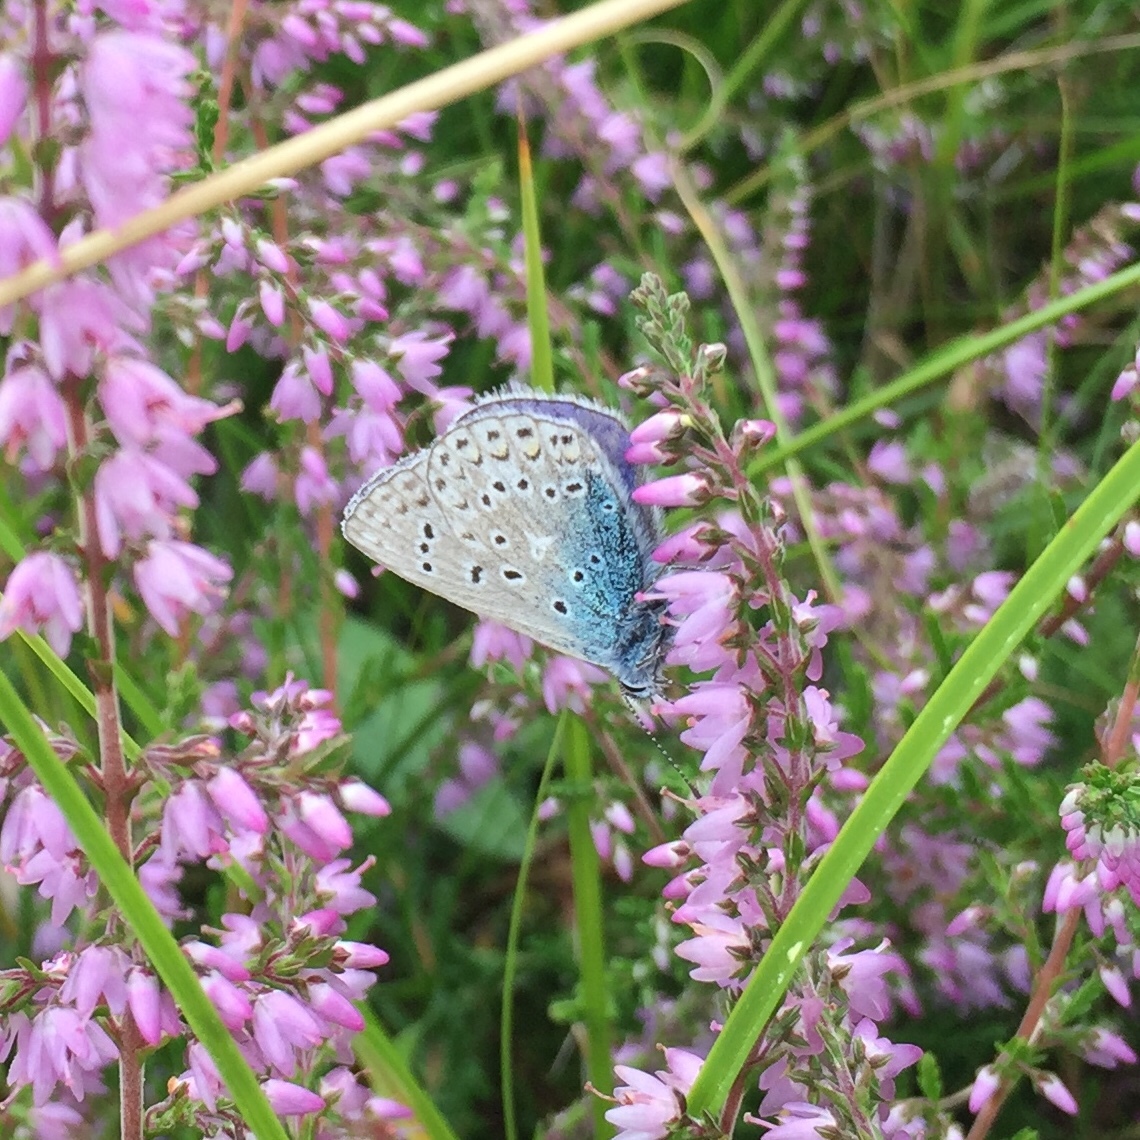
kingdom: Animalia
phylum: Arthropoda
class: Insecta
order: Lepidoptera
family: Lycaenidae
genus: Polyommatus
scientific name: Polyommatus icarus
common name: Common blue
